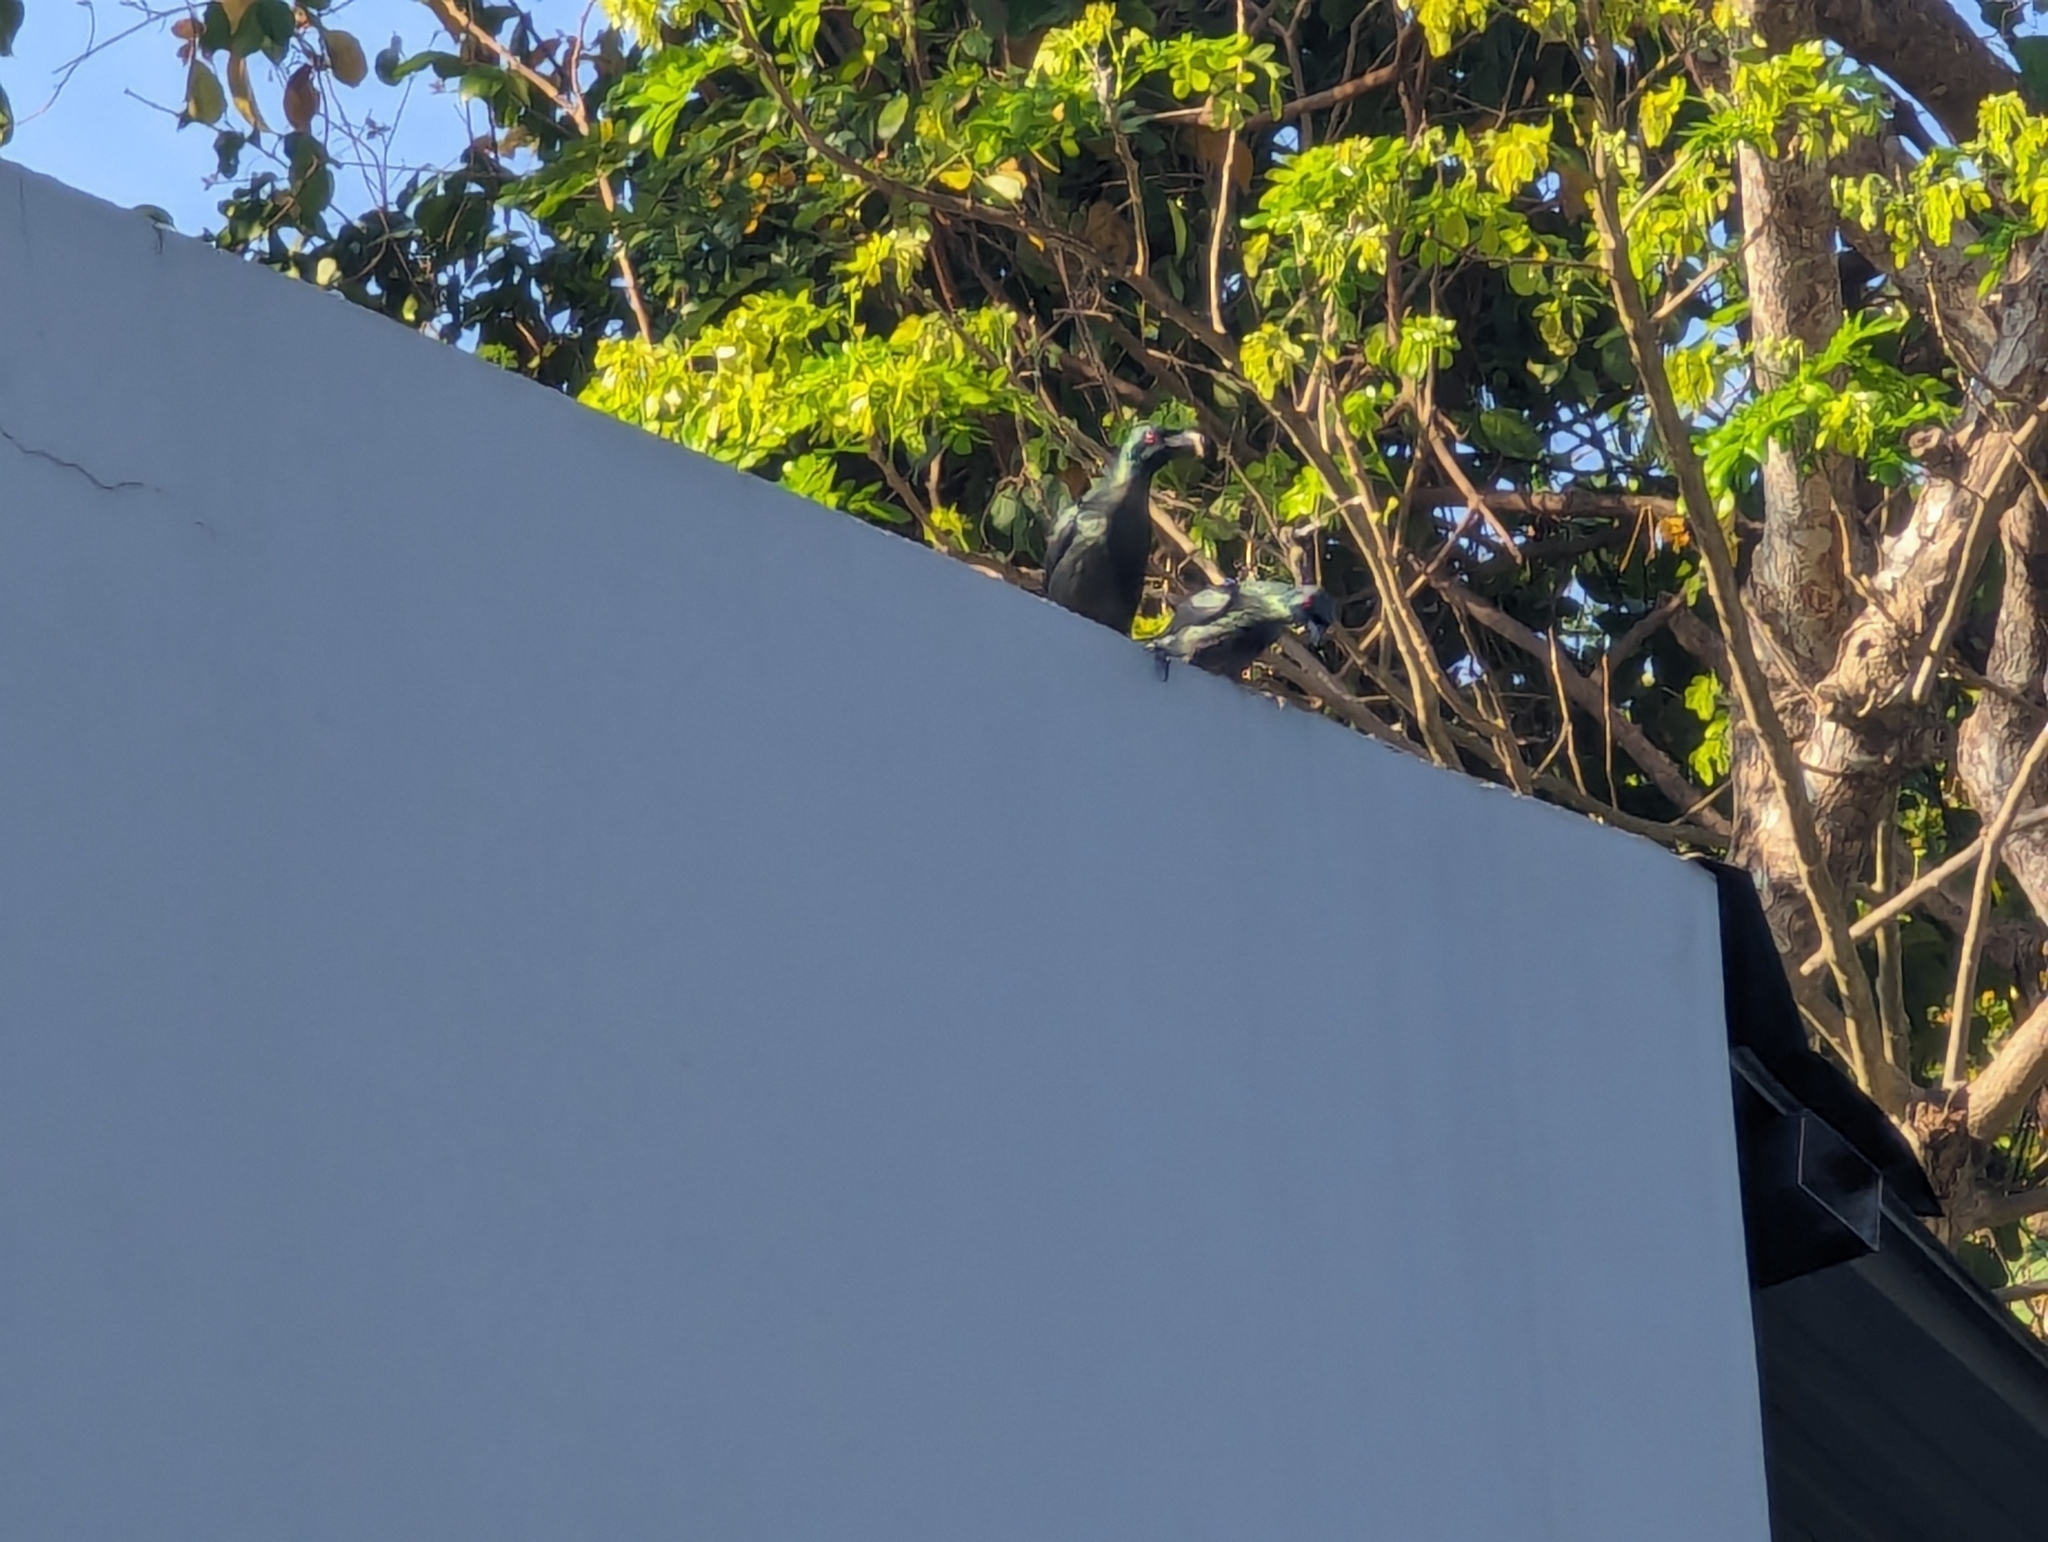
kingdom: Animalia
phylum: Chordata
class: Aves
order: Passeriformes
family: Sturnidae
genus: Aplonis
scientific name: Aplonis panayensis
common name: Asian glossy starling
